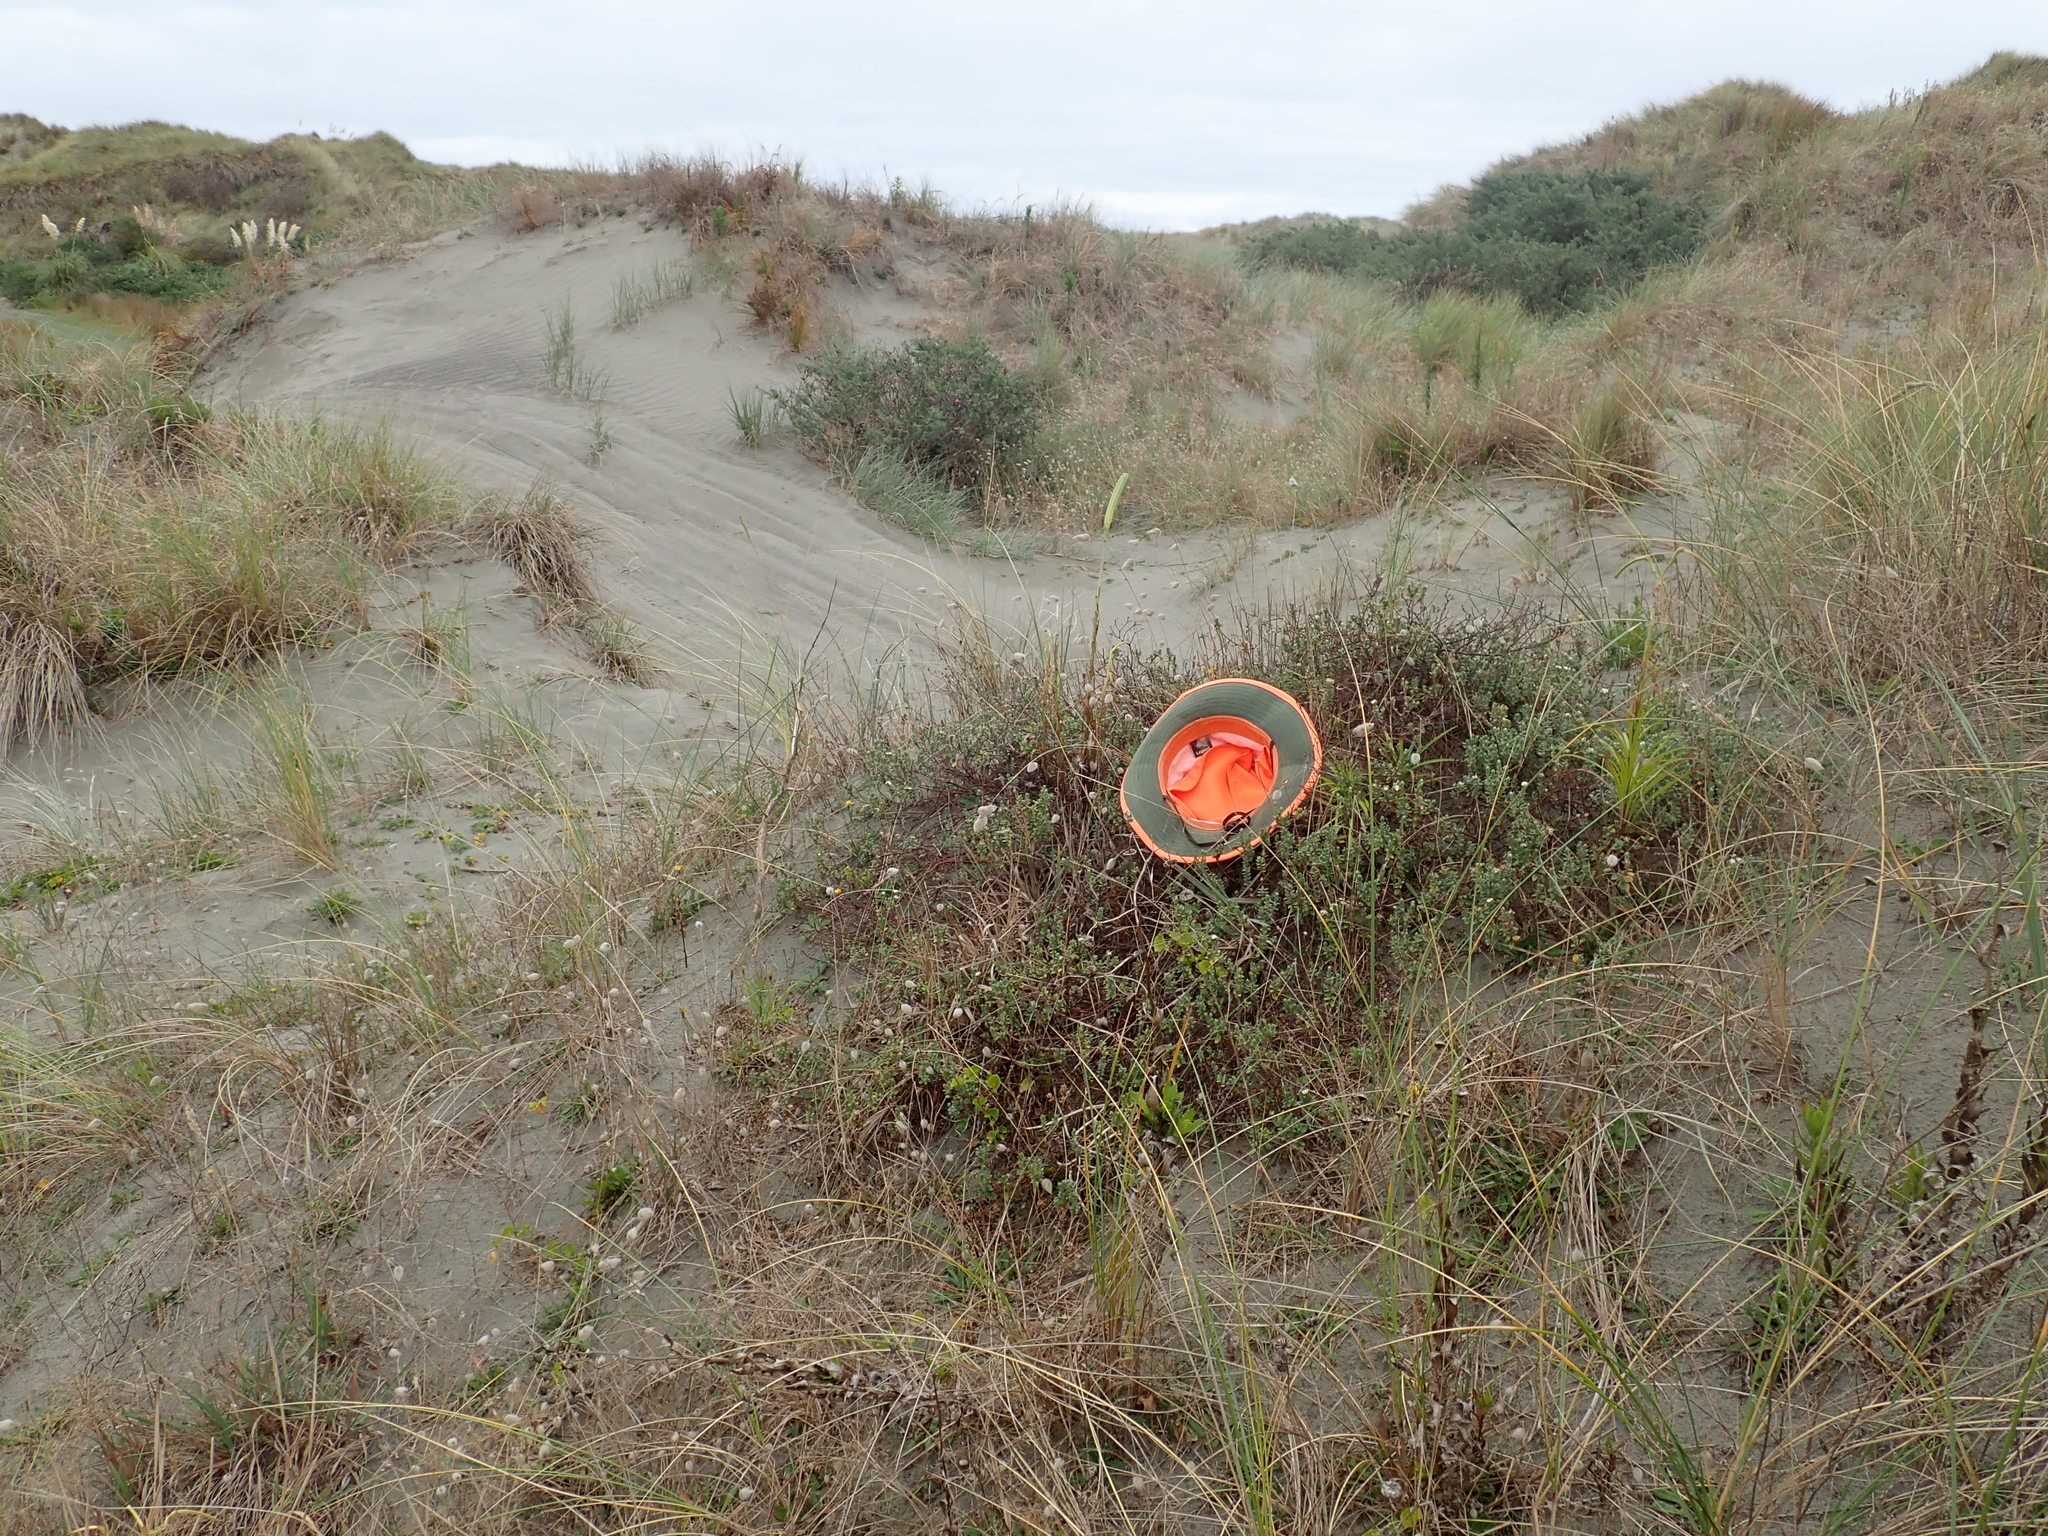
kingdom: Plantae
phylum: Tracheophyta
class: Magnoliopsida
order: Malvales
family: Thymelaeaceae
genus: Pimelea
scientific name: Pimelea villosa
